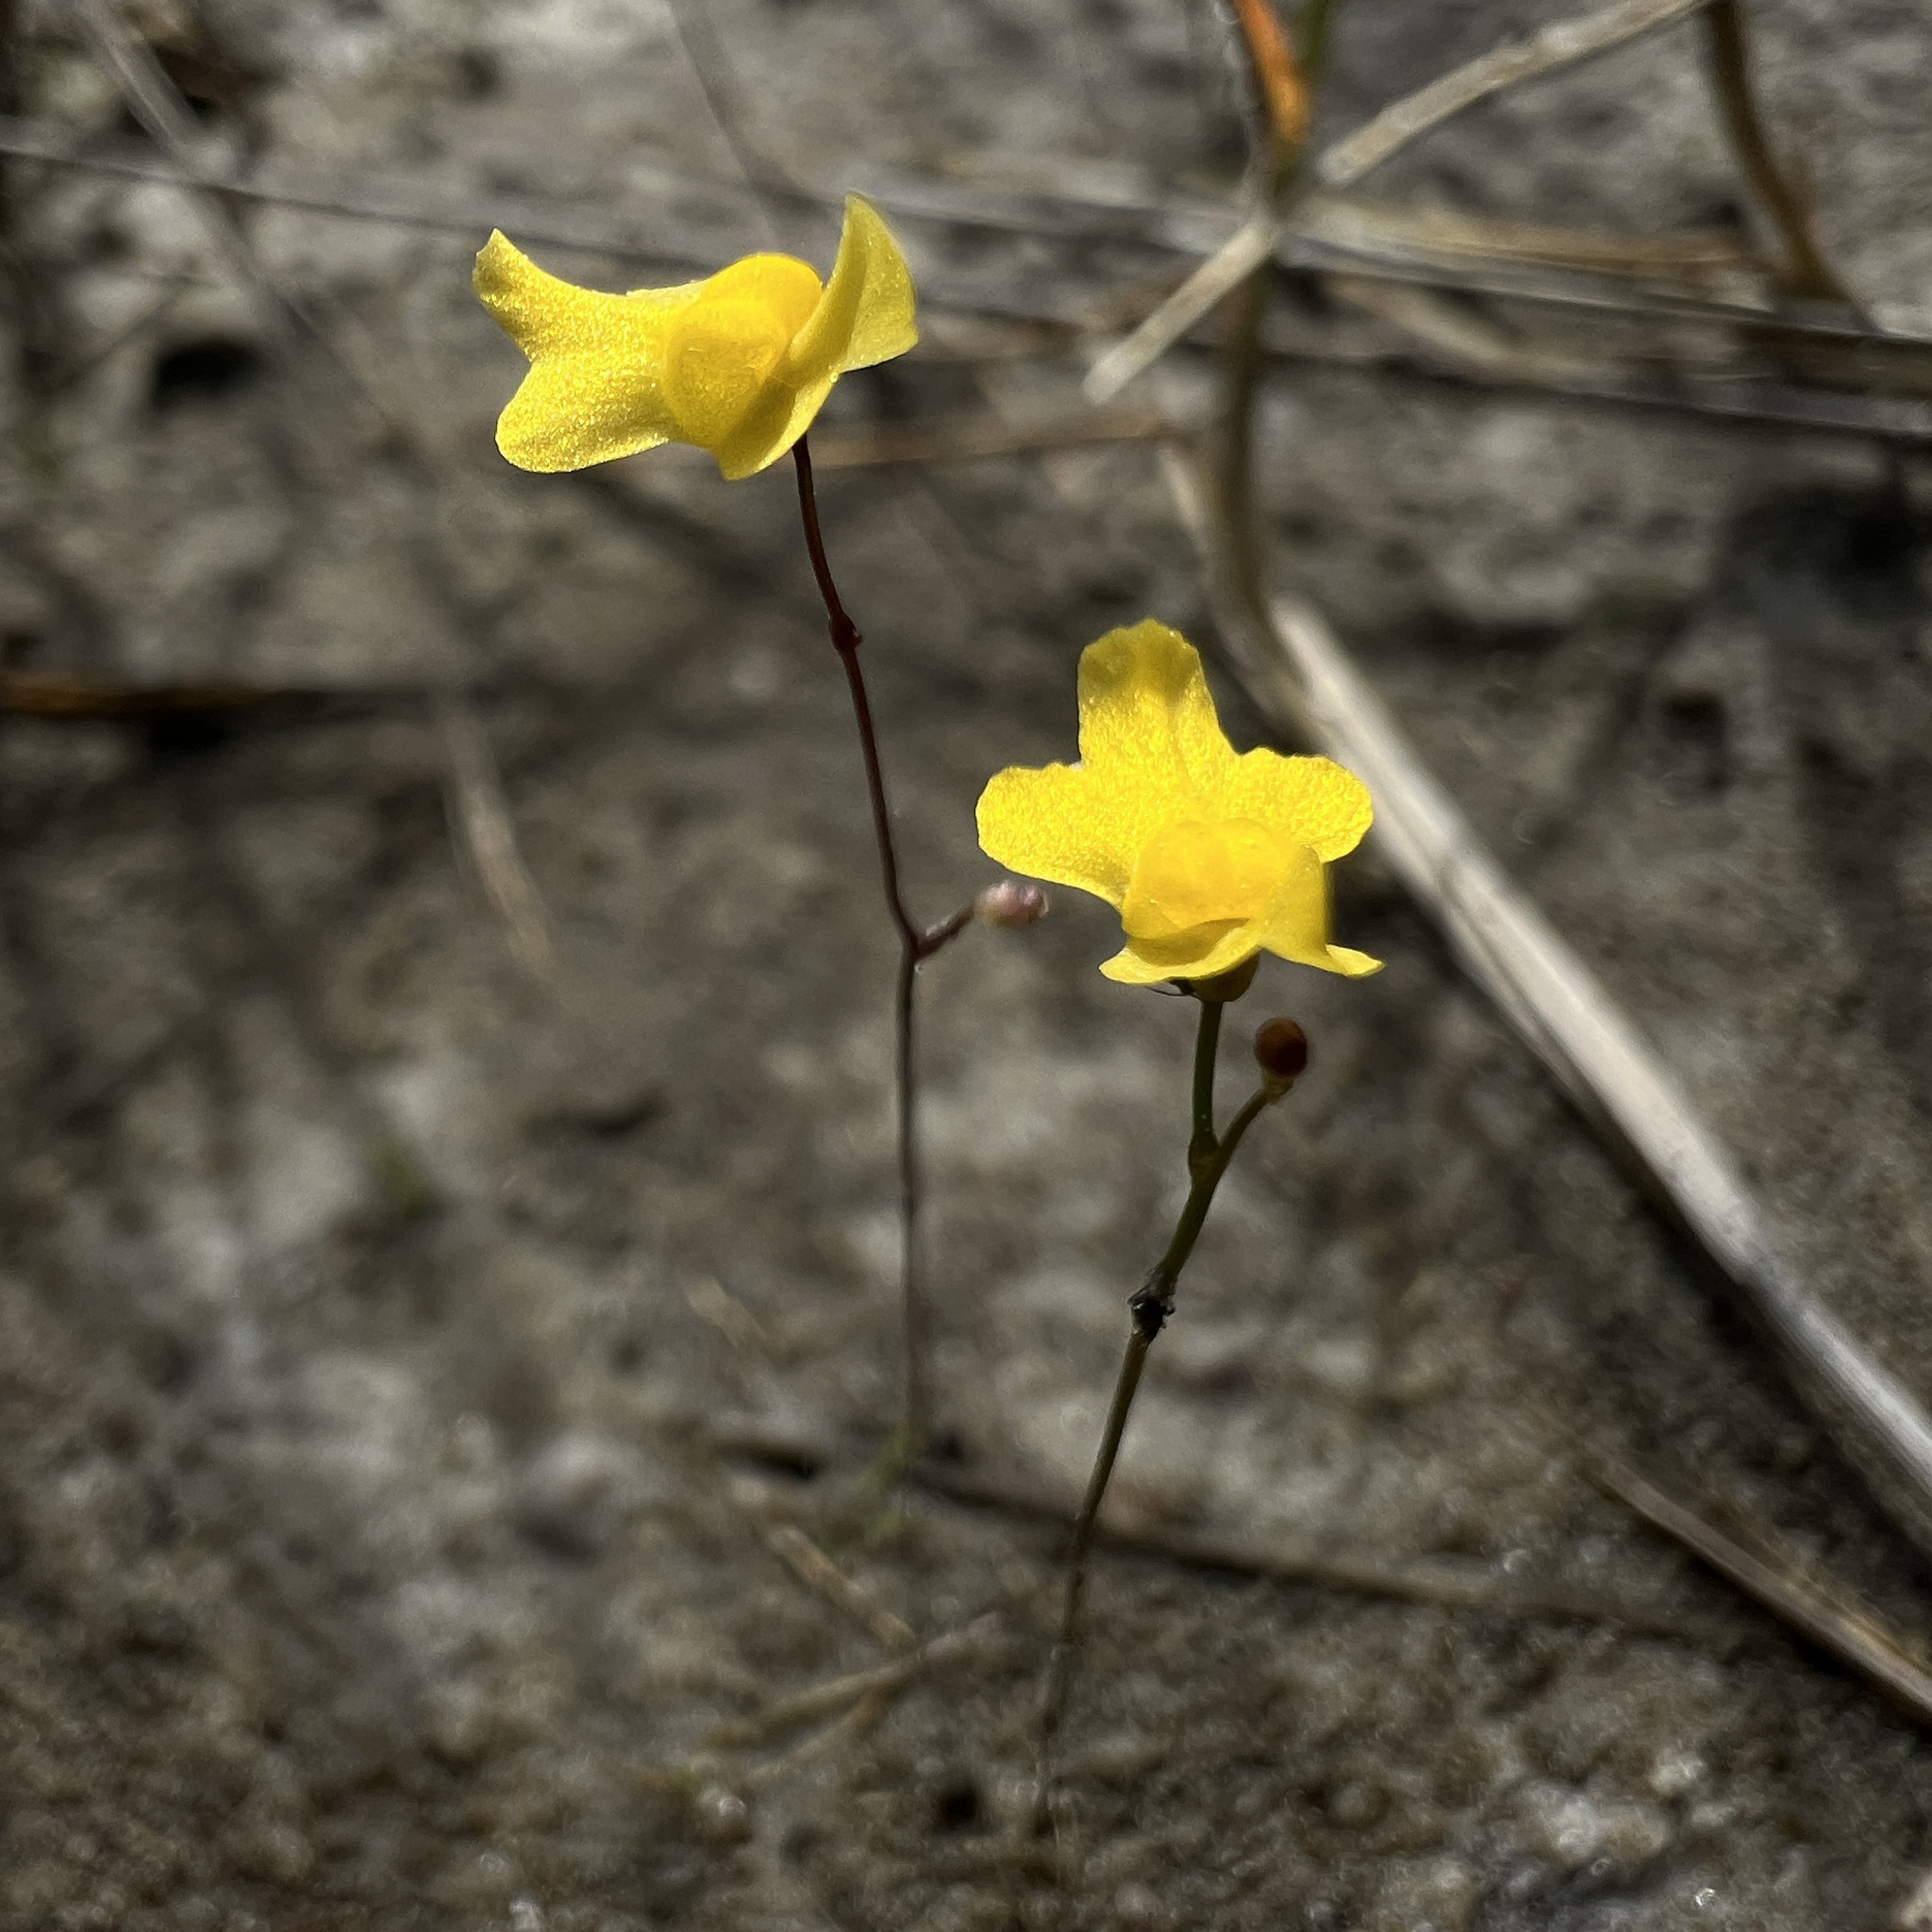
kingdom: Plantae
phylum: Tracheophyta
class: Magnoliopsida
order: Lamiales
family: Lentibulariaceae
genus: Utricularia
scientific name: Utricularia subulata
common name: Tiny bladderwort
